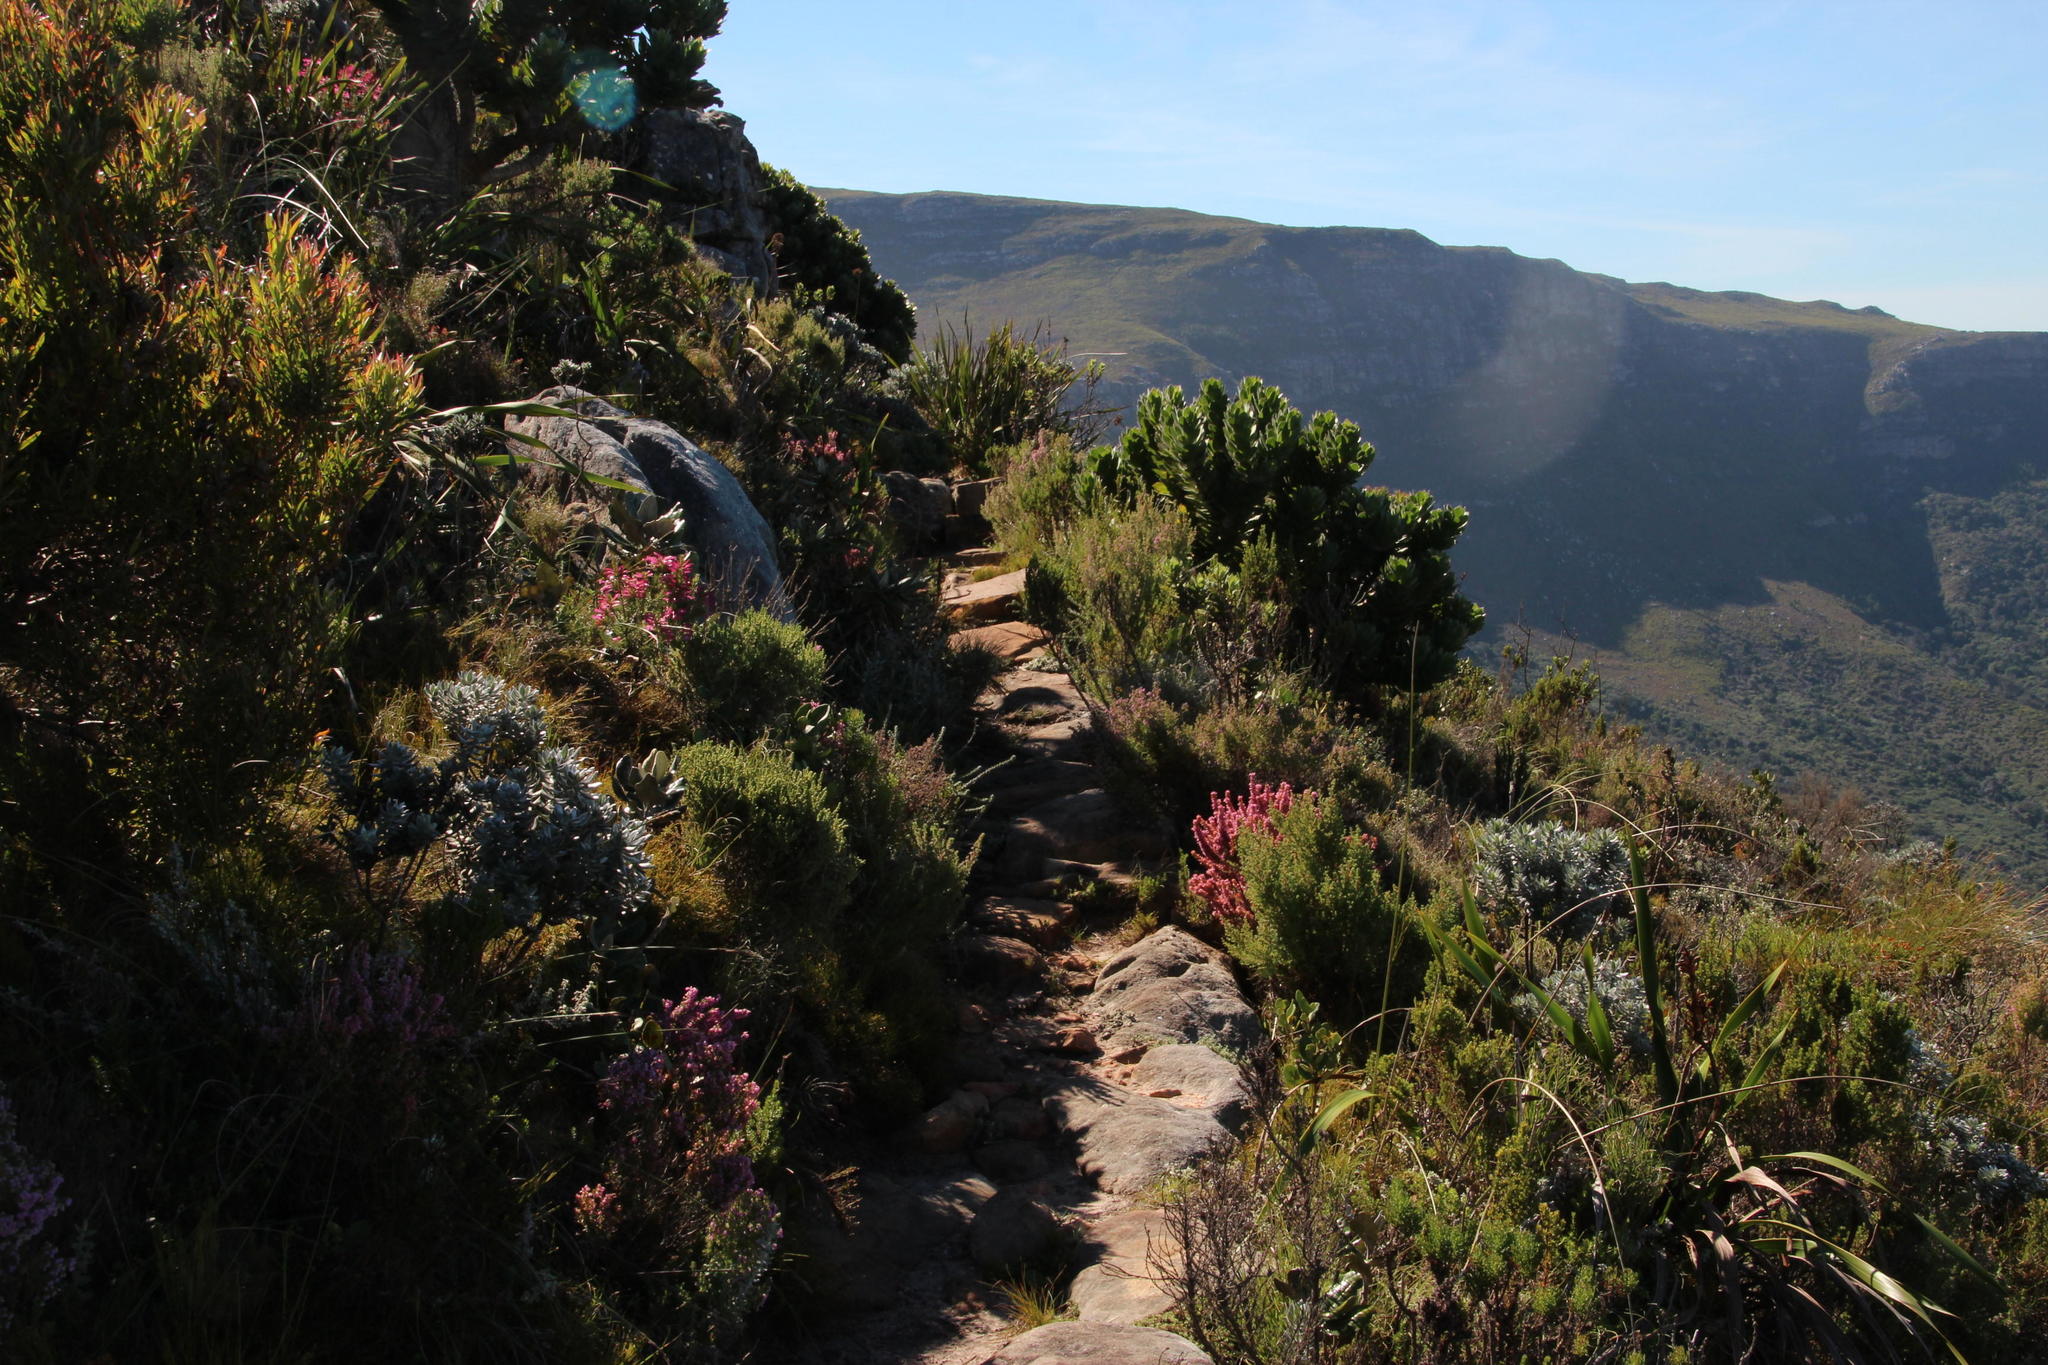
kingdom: Plantae
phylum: Tracheophyta
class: Magnoliopsida
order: Ericales
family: Ericaceae
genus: Erica
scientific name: Erica nudiflora
